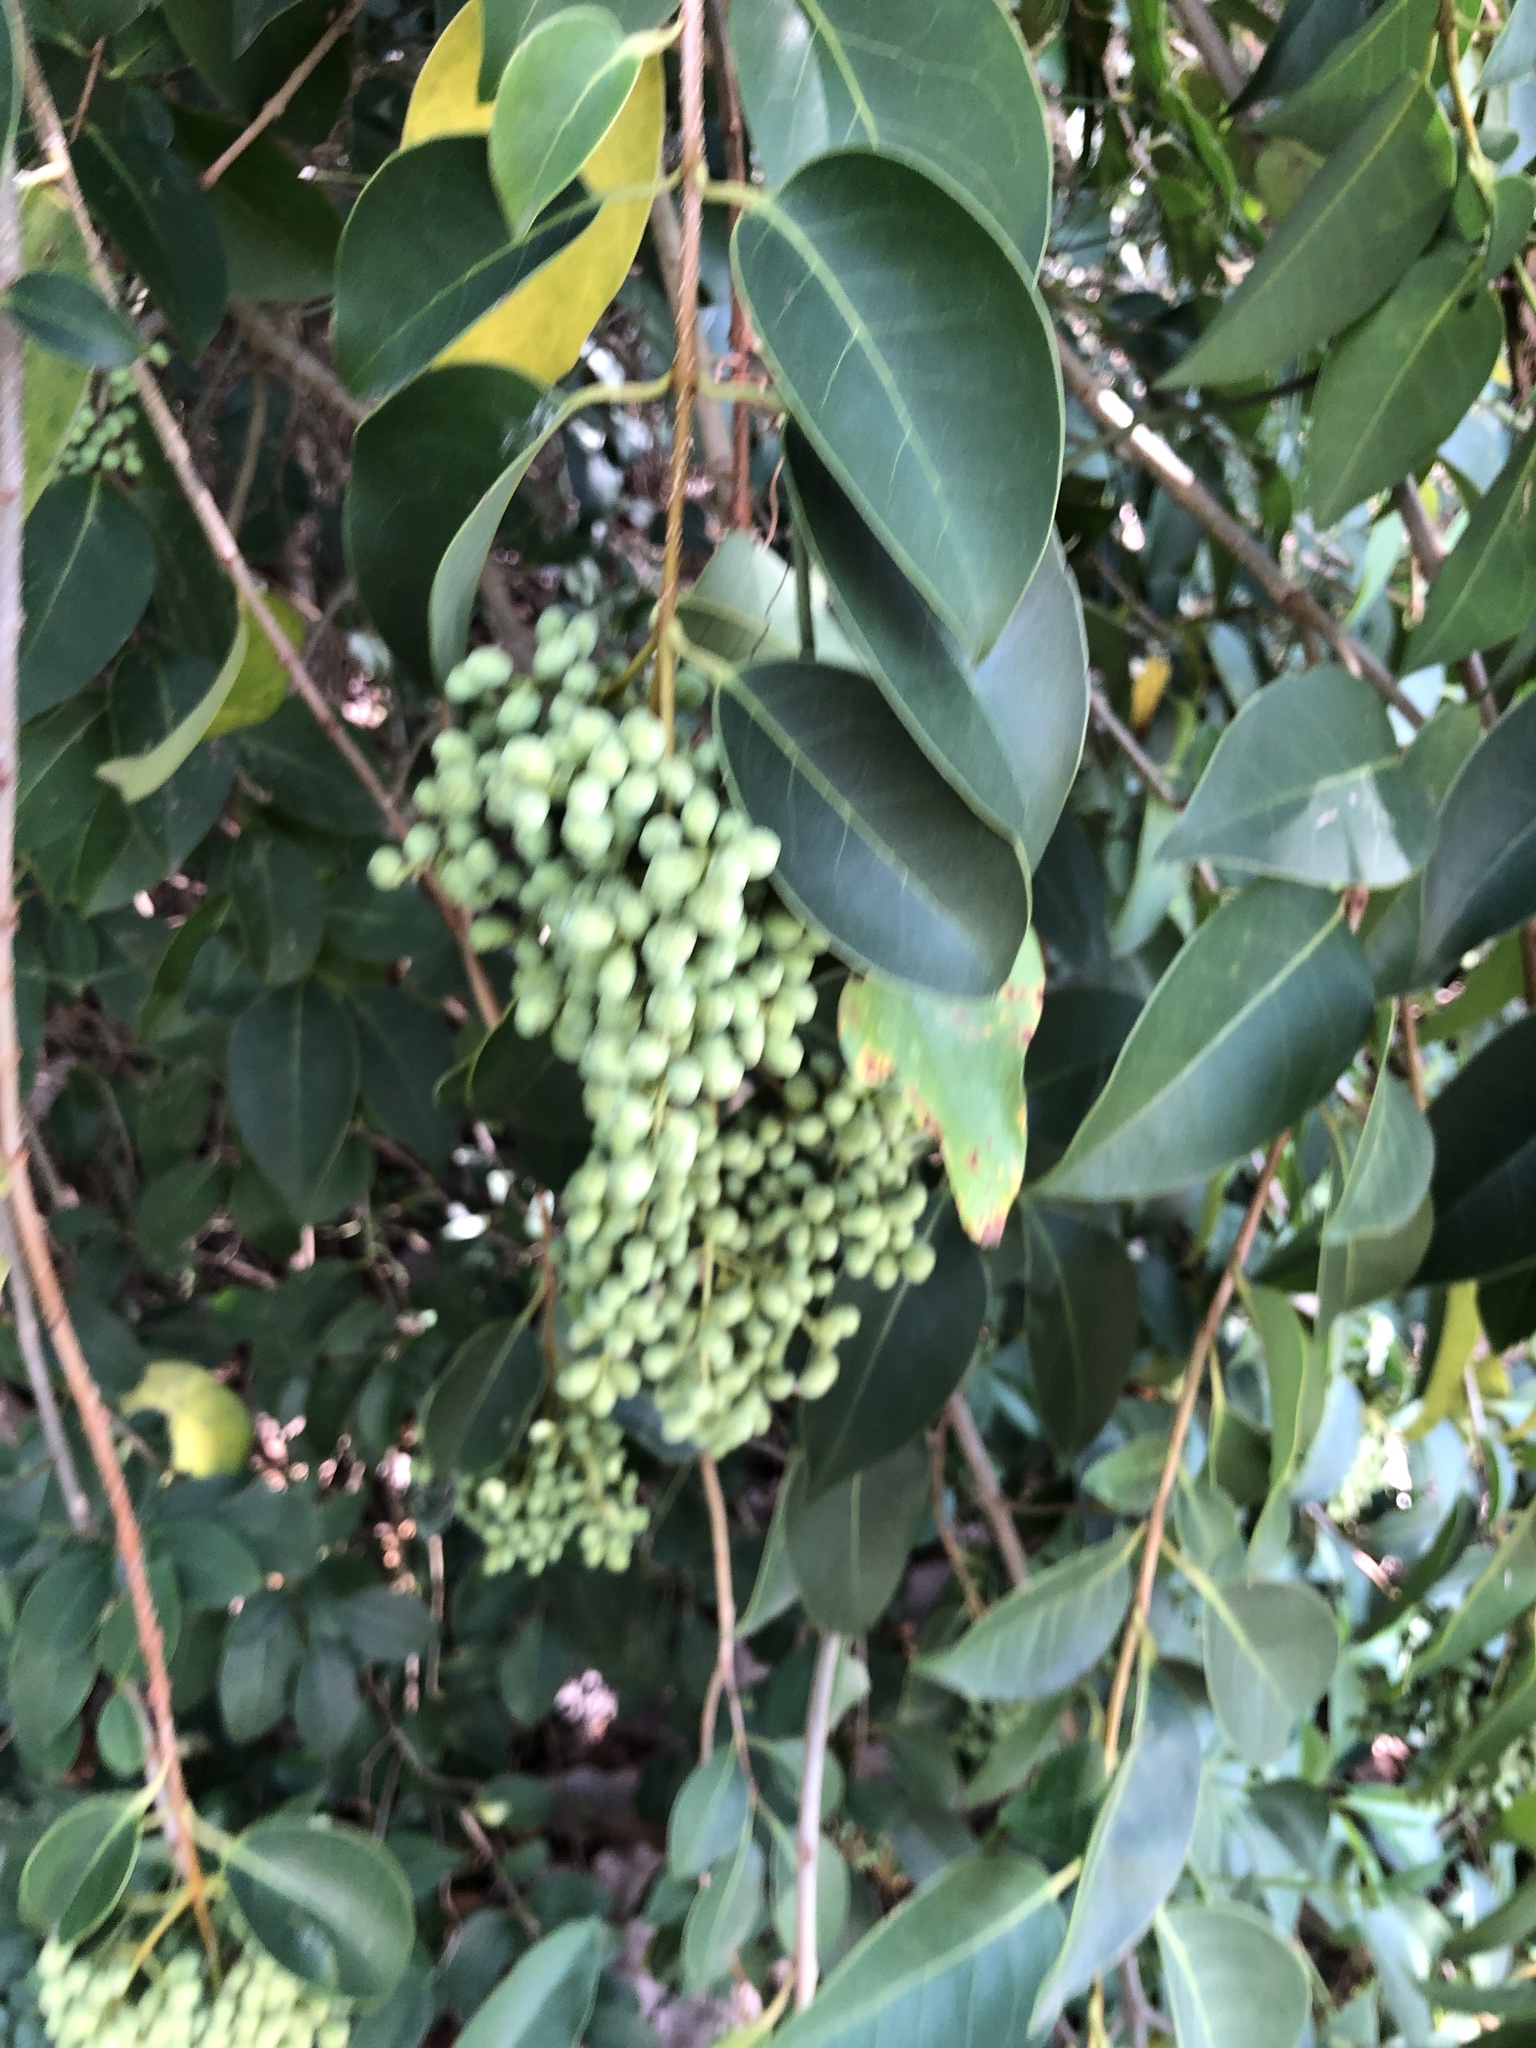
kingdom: Plantae
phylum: Tracheophyta
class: Magnoliopsida
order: Lamiales
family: Oleaceae
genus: Ligustrum
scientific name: Ligustrum lucidum
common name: Glossy privet
